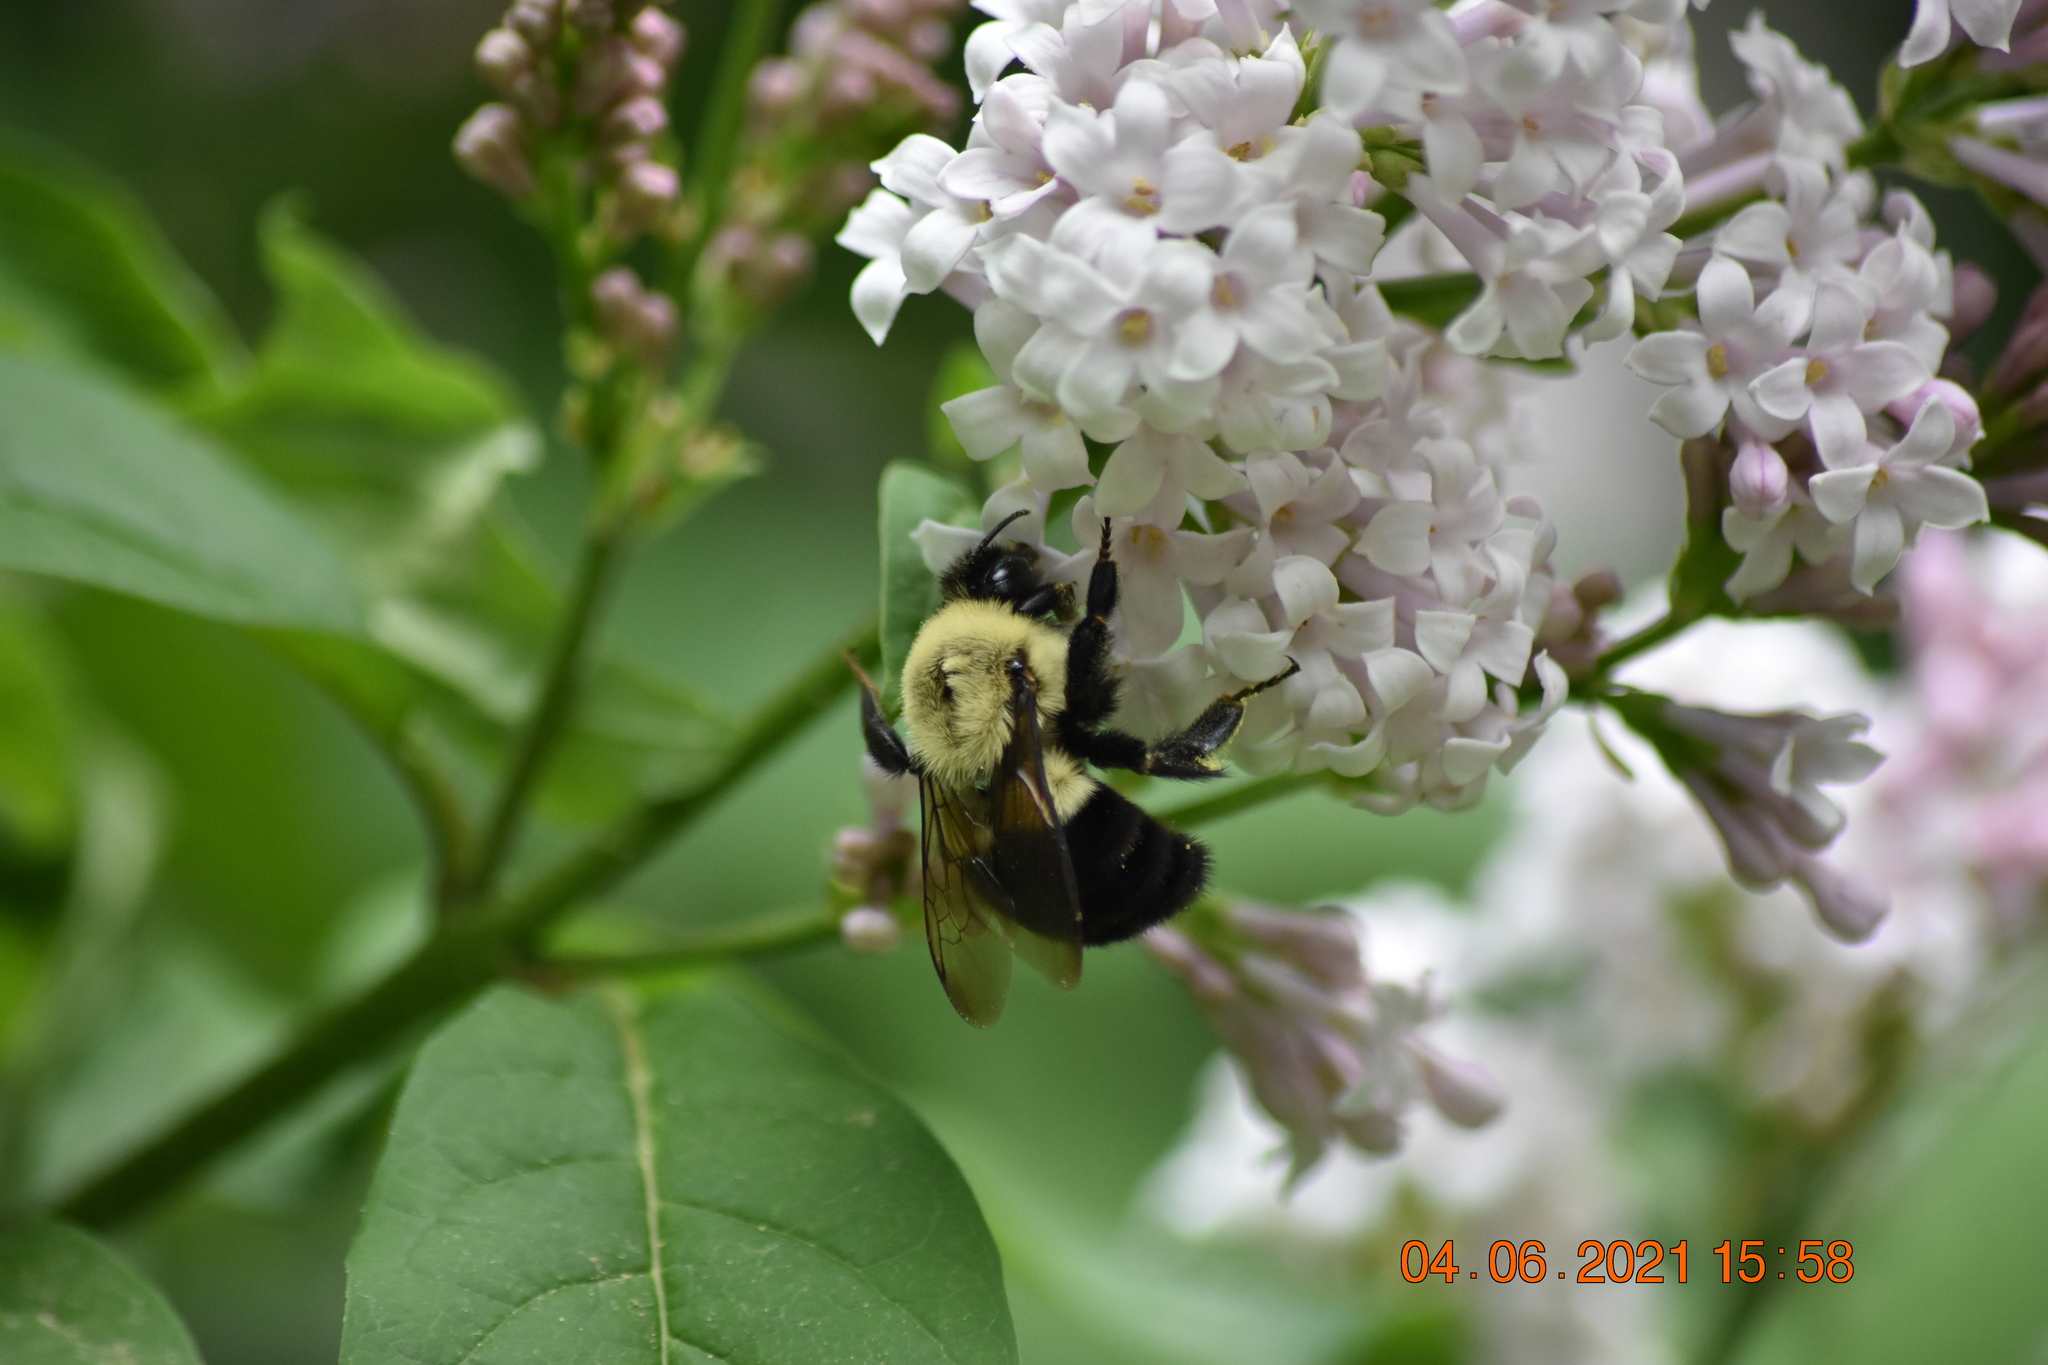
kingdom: Animalia
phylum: Arthropoda
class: Insecta
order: Hymenoptera
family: Apidae
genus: Bombus
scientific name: Bombus impatiens
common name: Common eastern bumble bee
